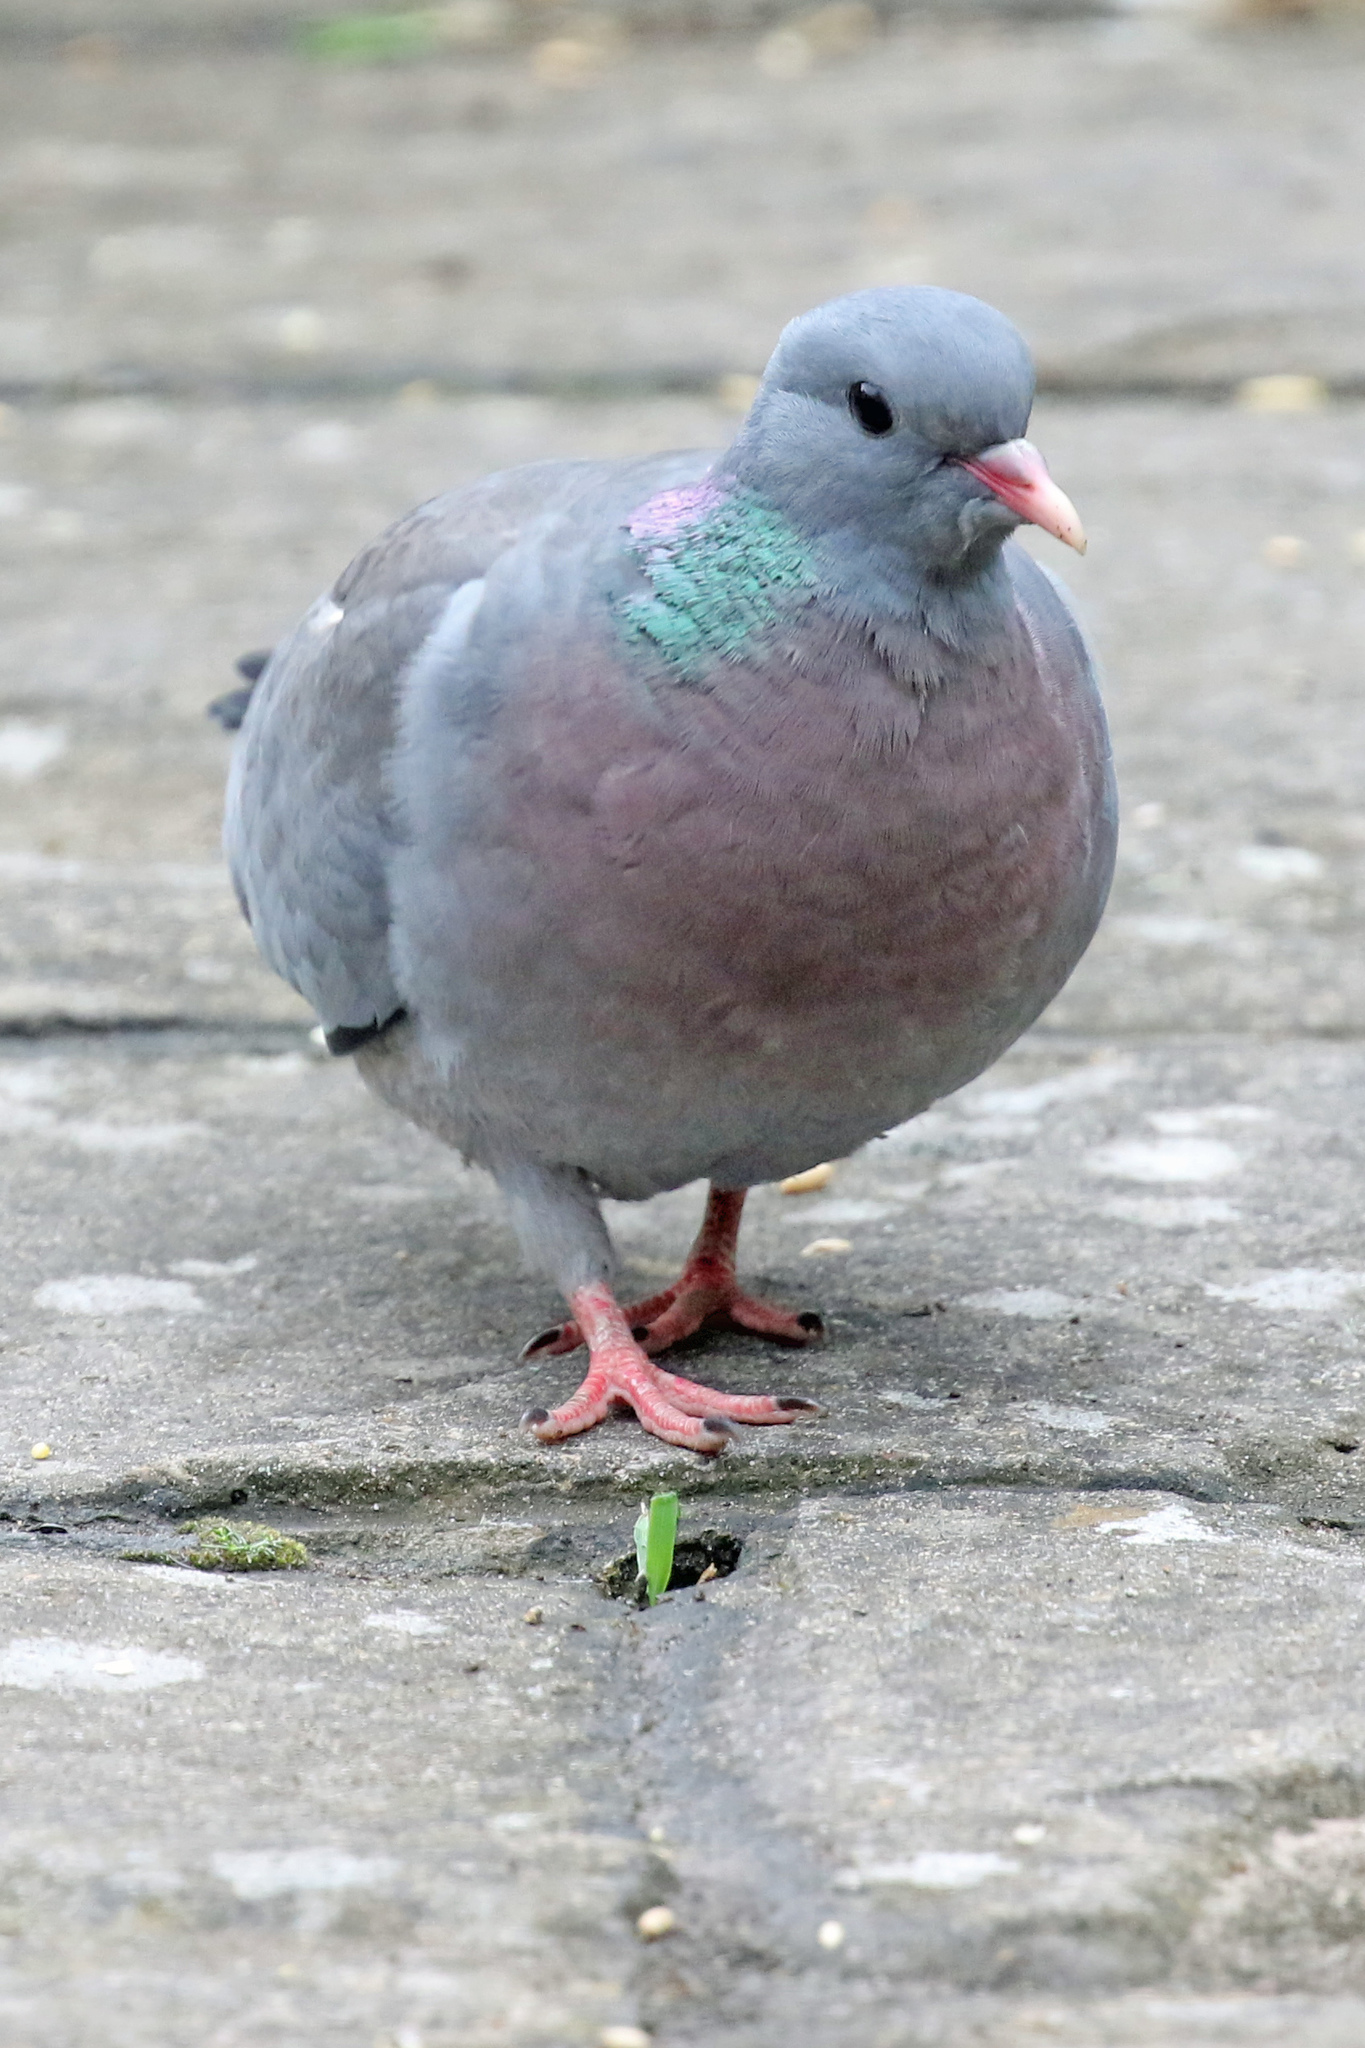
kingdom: Animalia
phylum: Chordata
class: Aves
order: Columbiformes
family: Columbidae
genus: Columba
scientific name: Columba oenas
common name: Stock dove
